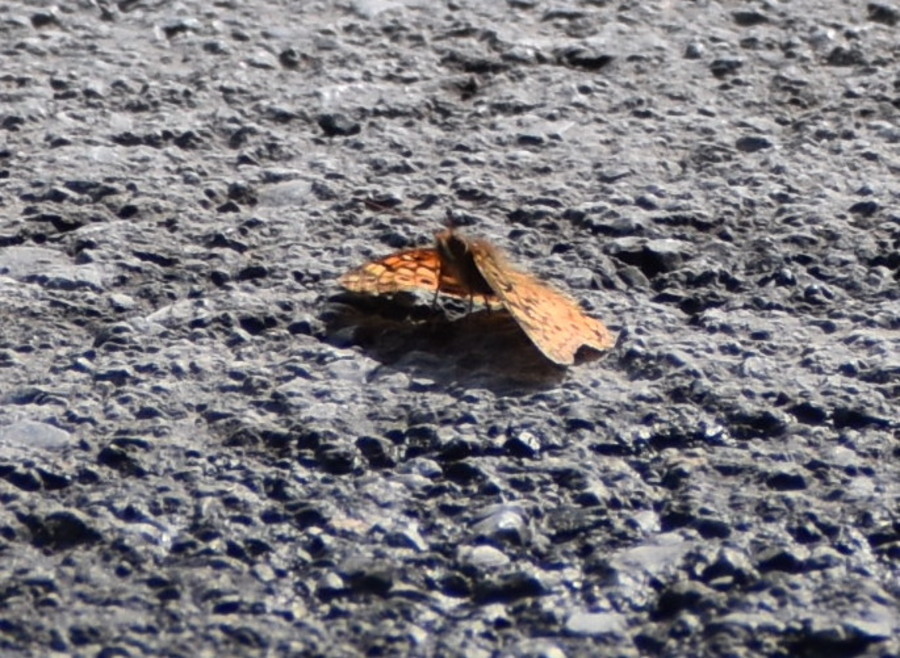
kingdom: Animalia
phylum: Arthropoda
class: Insecta
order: Lepidoptera
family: Nymphalidae
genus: Euptoieta
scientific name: Euptoieta claudia
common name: Variegated fritillary
